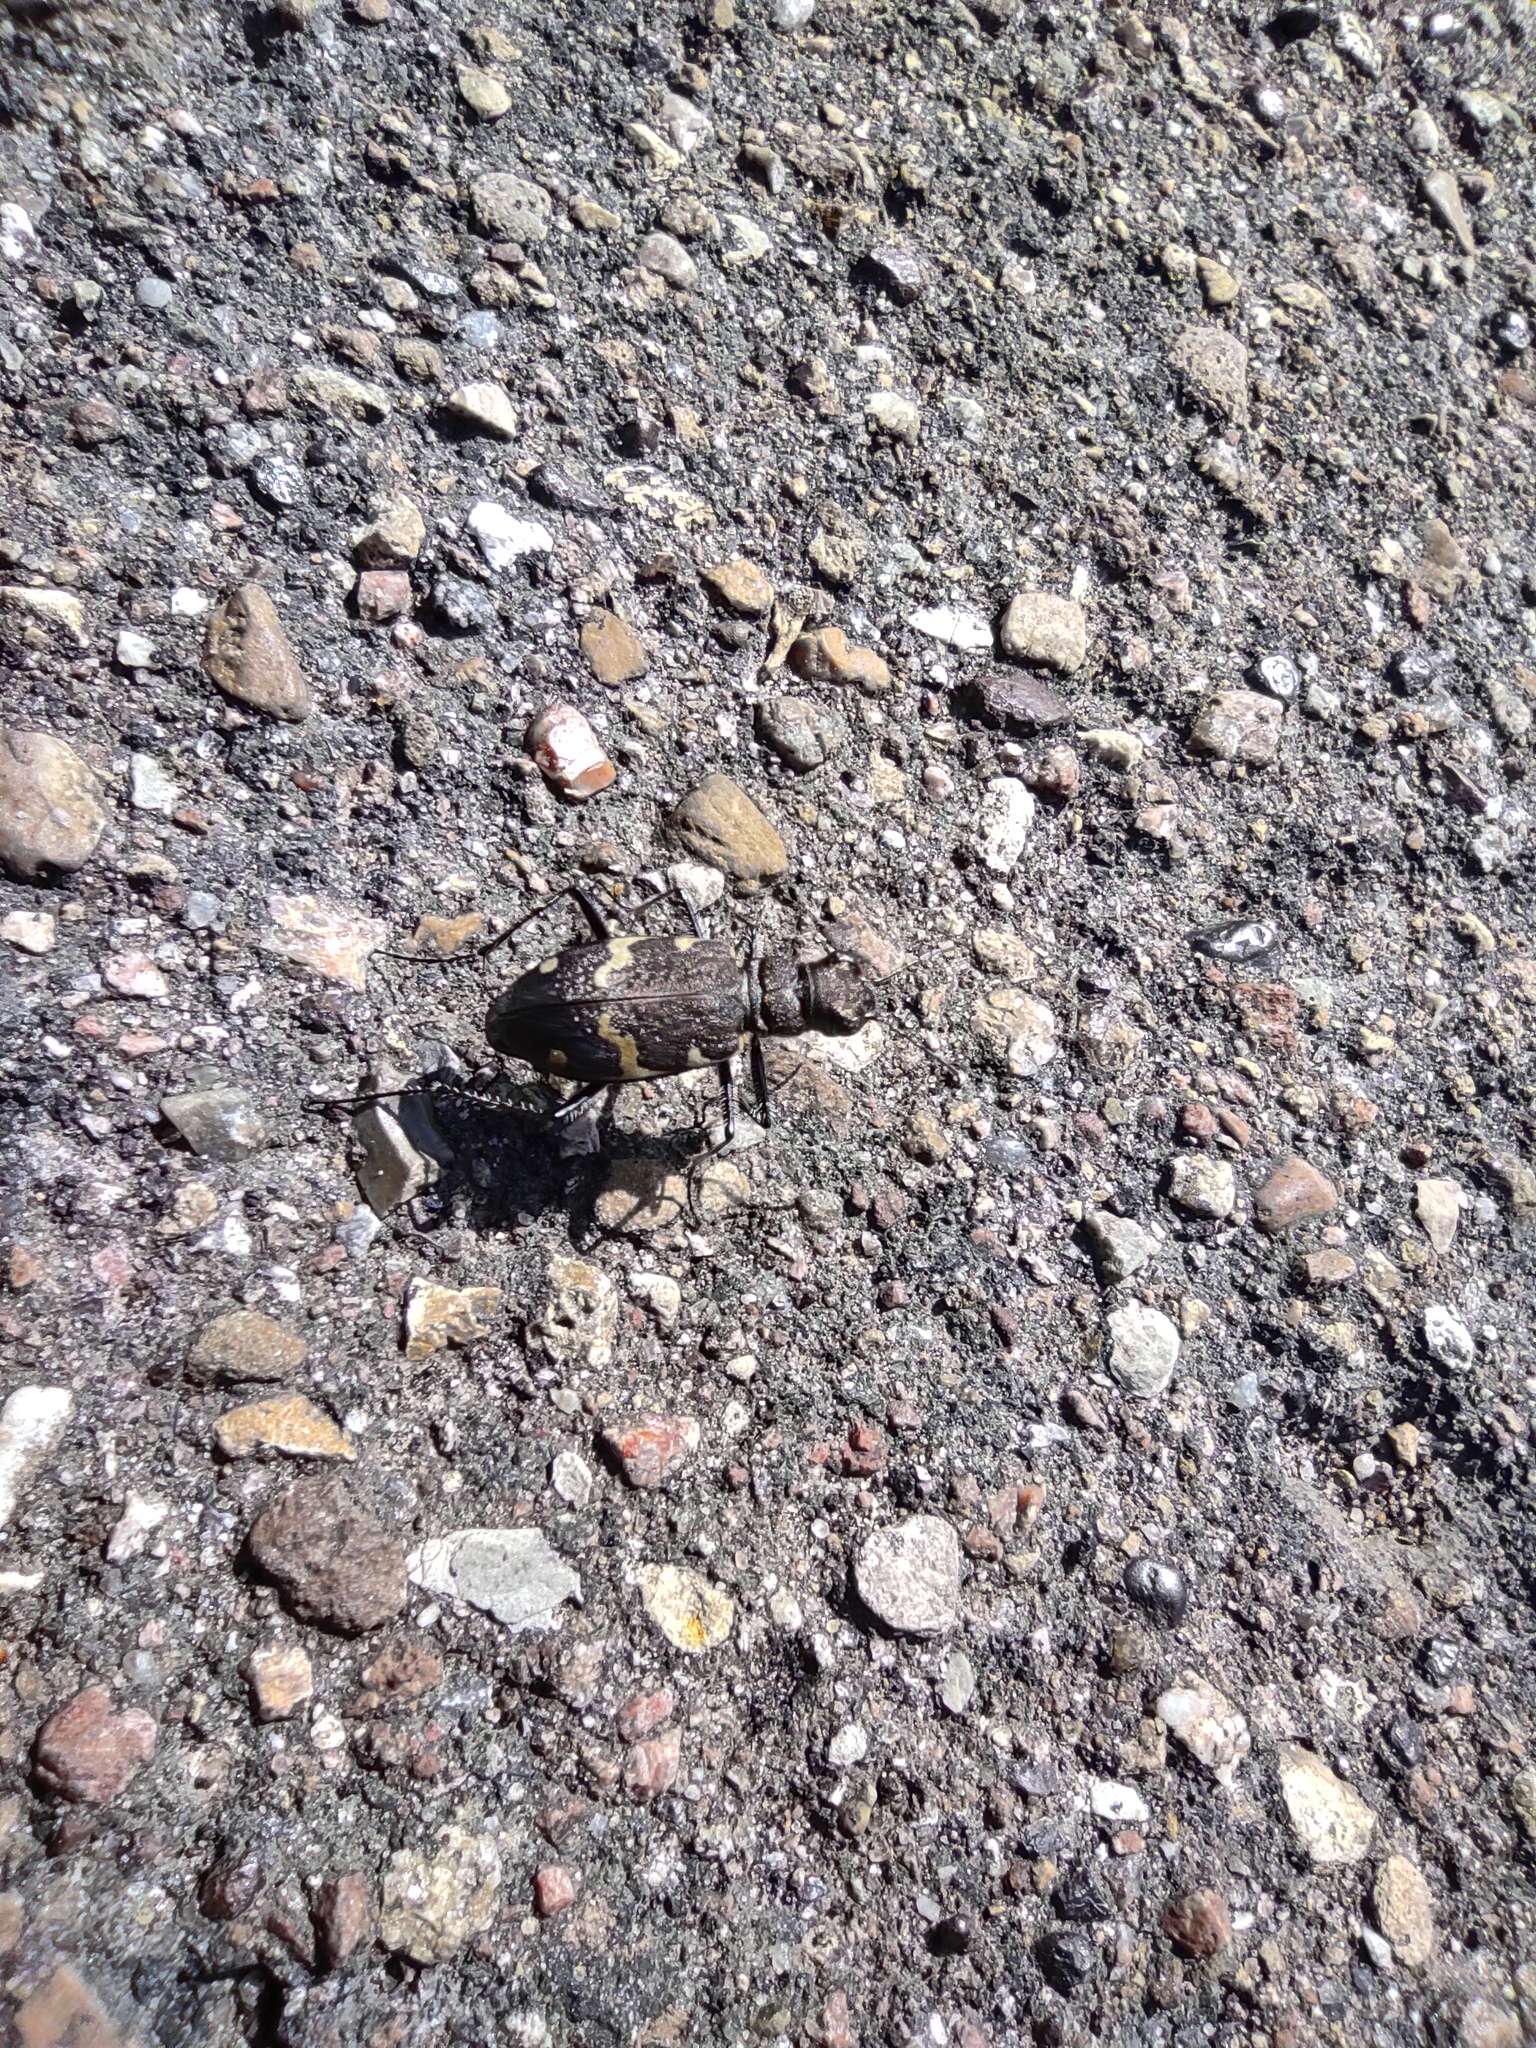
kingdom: Animalia
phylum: Arthropoda
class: Insecta
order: Coleoptera
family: Carabidae
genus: Cicindela
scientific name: Cicindela sylvatica
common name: Heath tiger beetle
